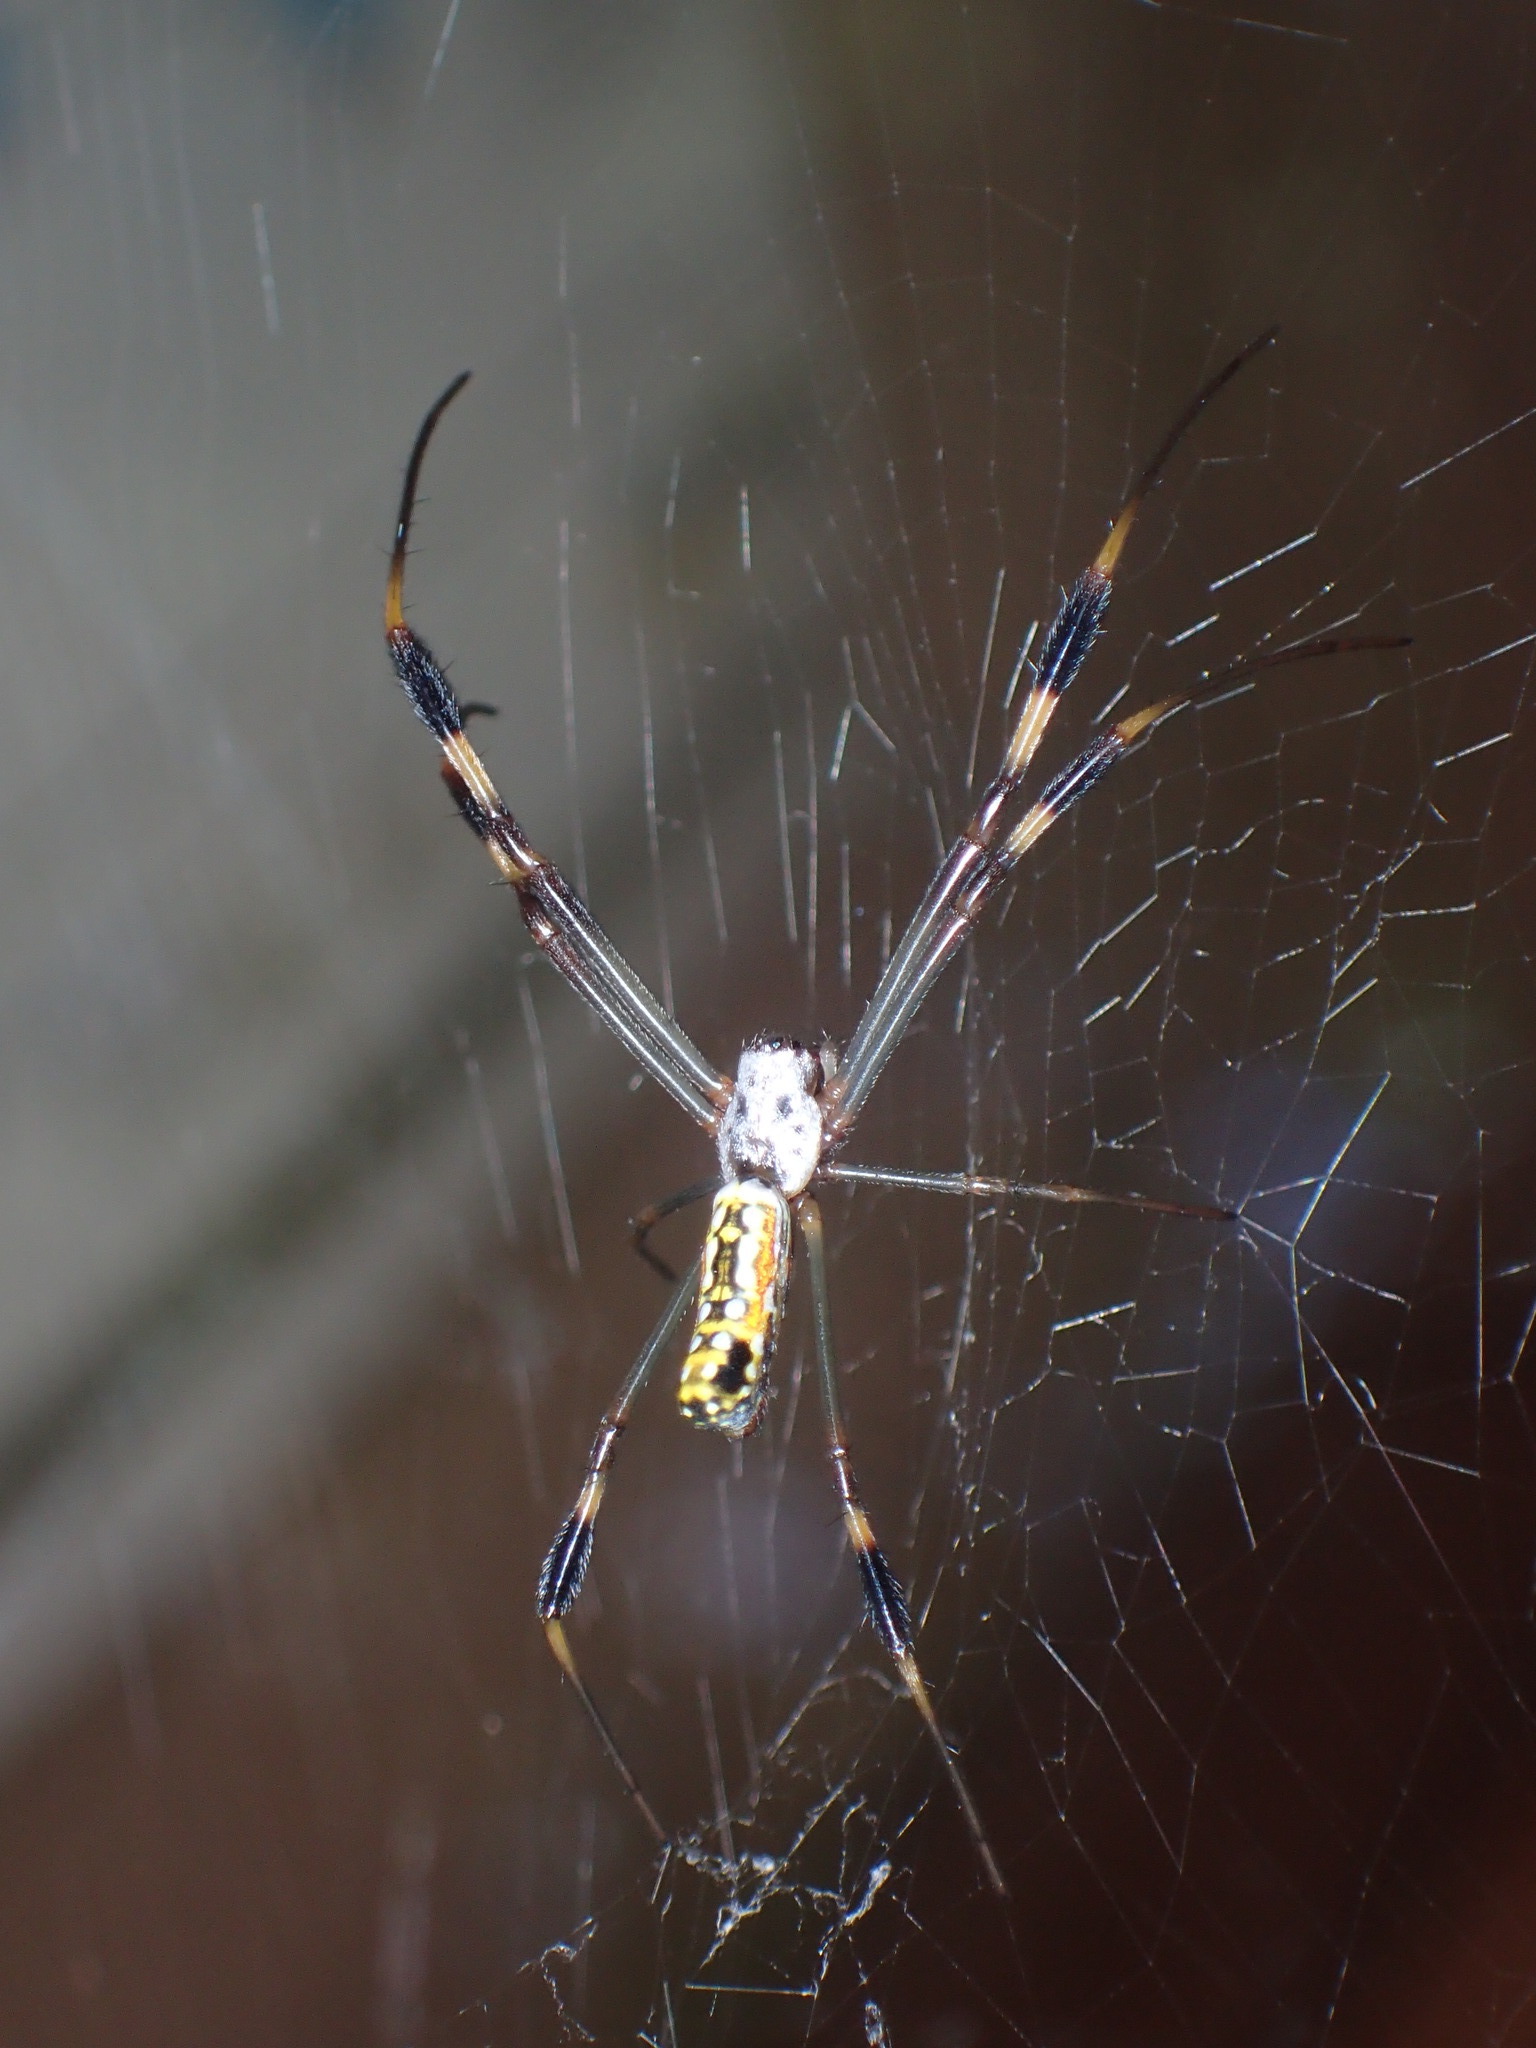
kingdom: Animalia
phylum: Arthropoda
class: Arachnida
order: Araneae
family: Araneidae
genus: Trichonephila
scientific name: Trichonephila clavipes
